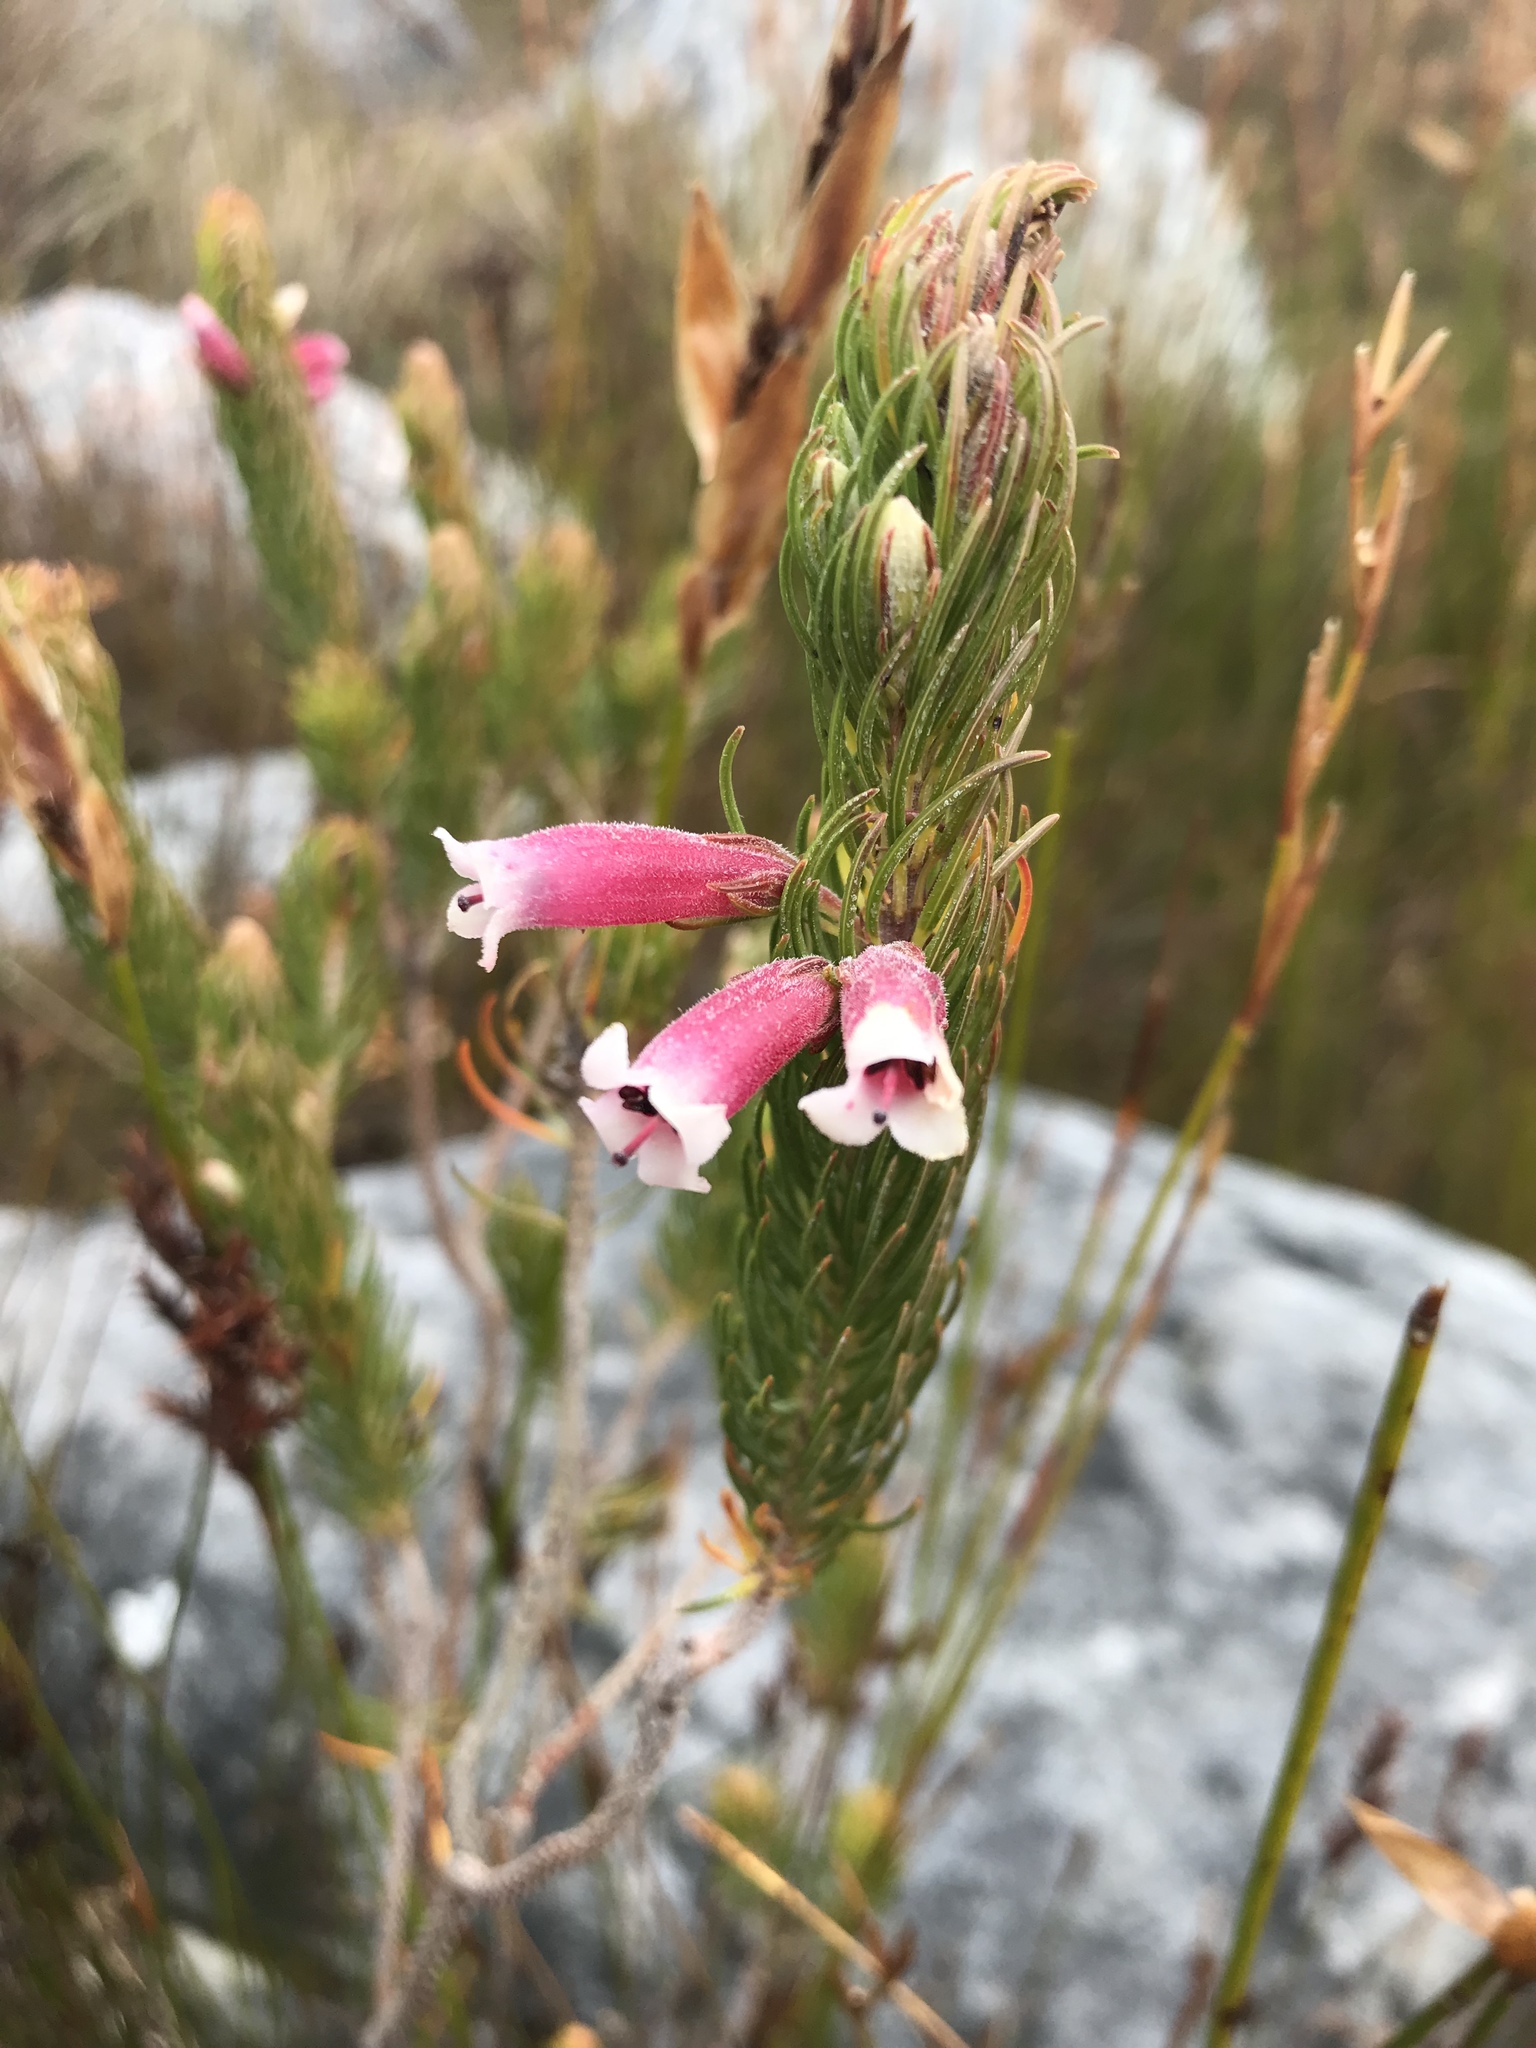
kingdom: Plantae
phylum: Tracheophyta
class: Magnoliopsida
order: Ericales
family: Ericaceae
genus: Erica
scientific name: Erica viscaria
